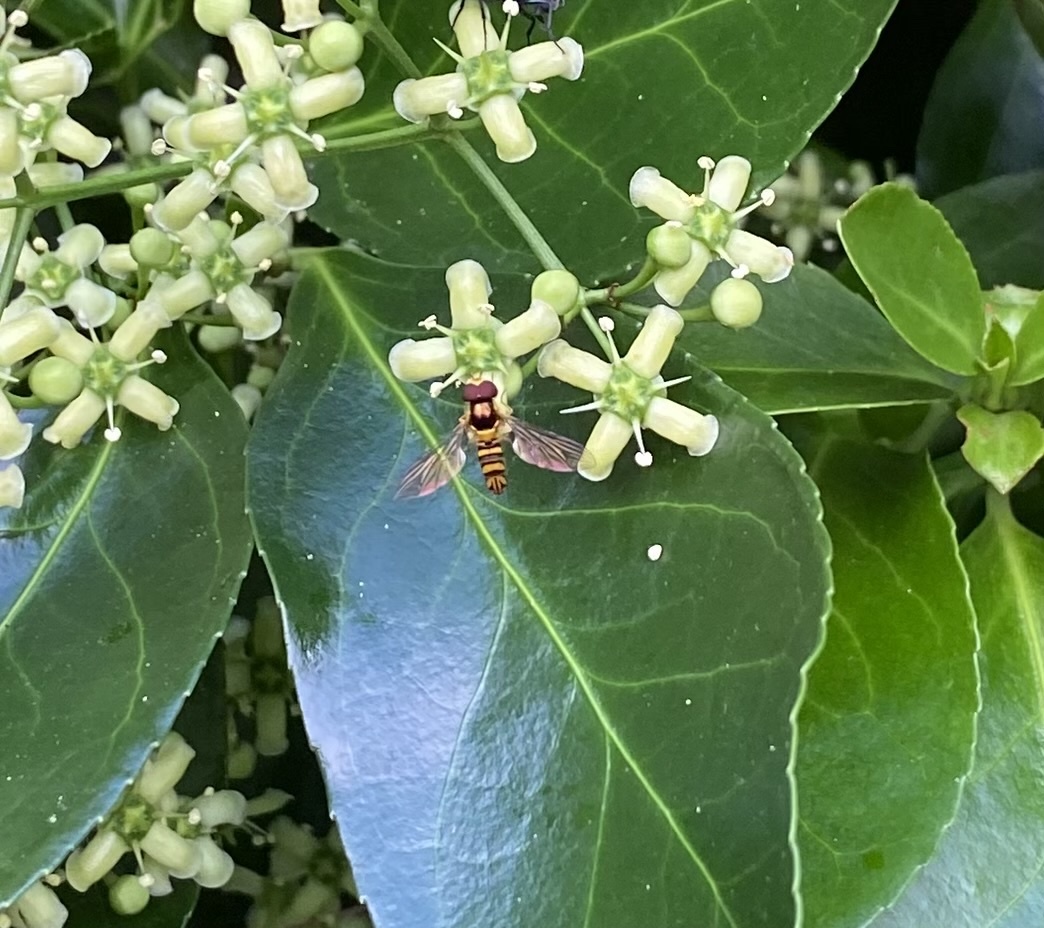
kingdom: Animalia
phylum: Arthropoda
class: Insecta
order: Diptera
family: Syrphidae
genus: Allograpta
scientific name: Allograpta obliqua
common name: Common oblique syrphid
